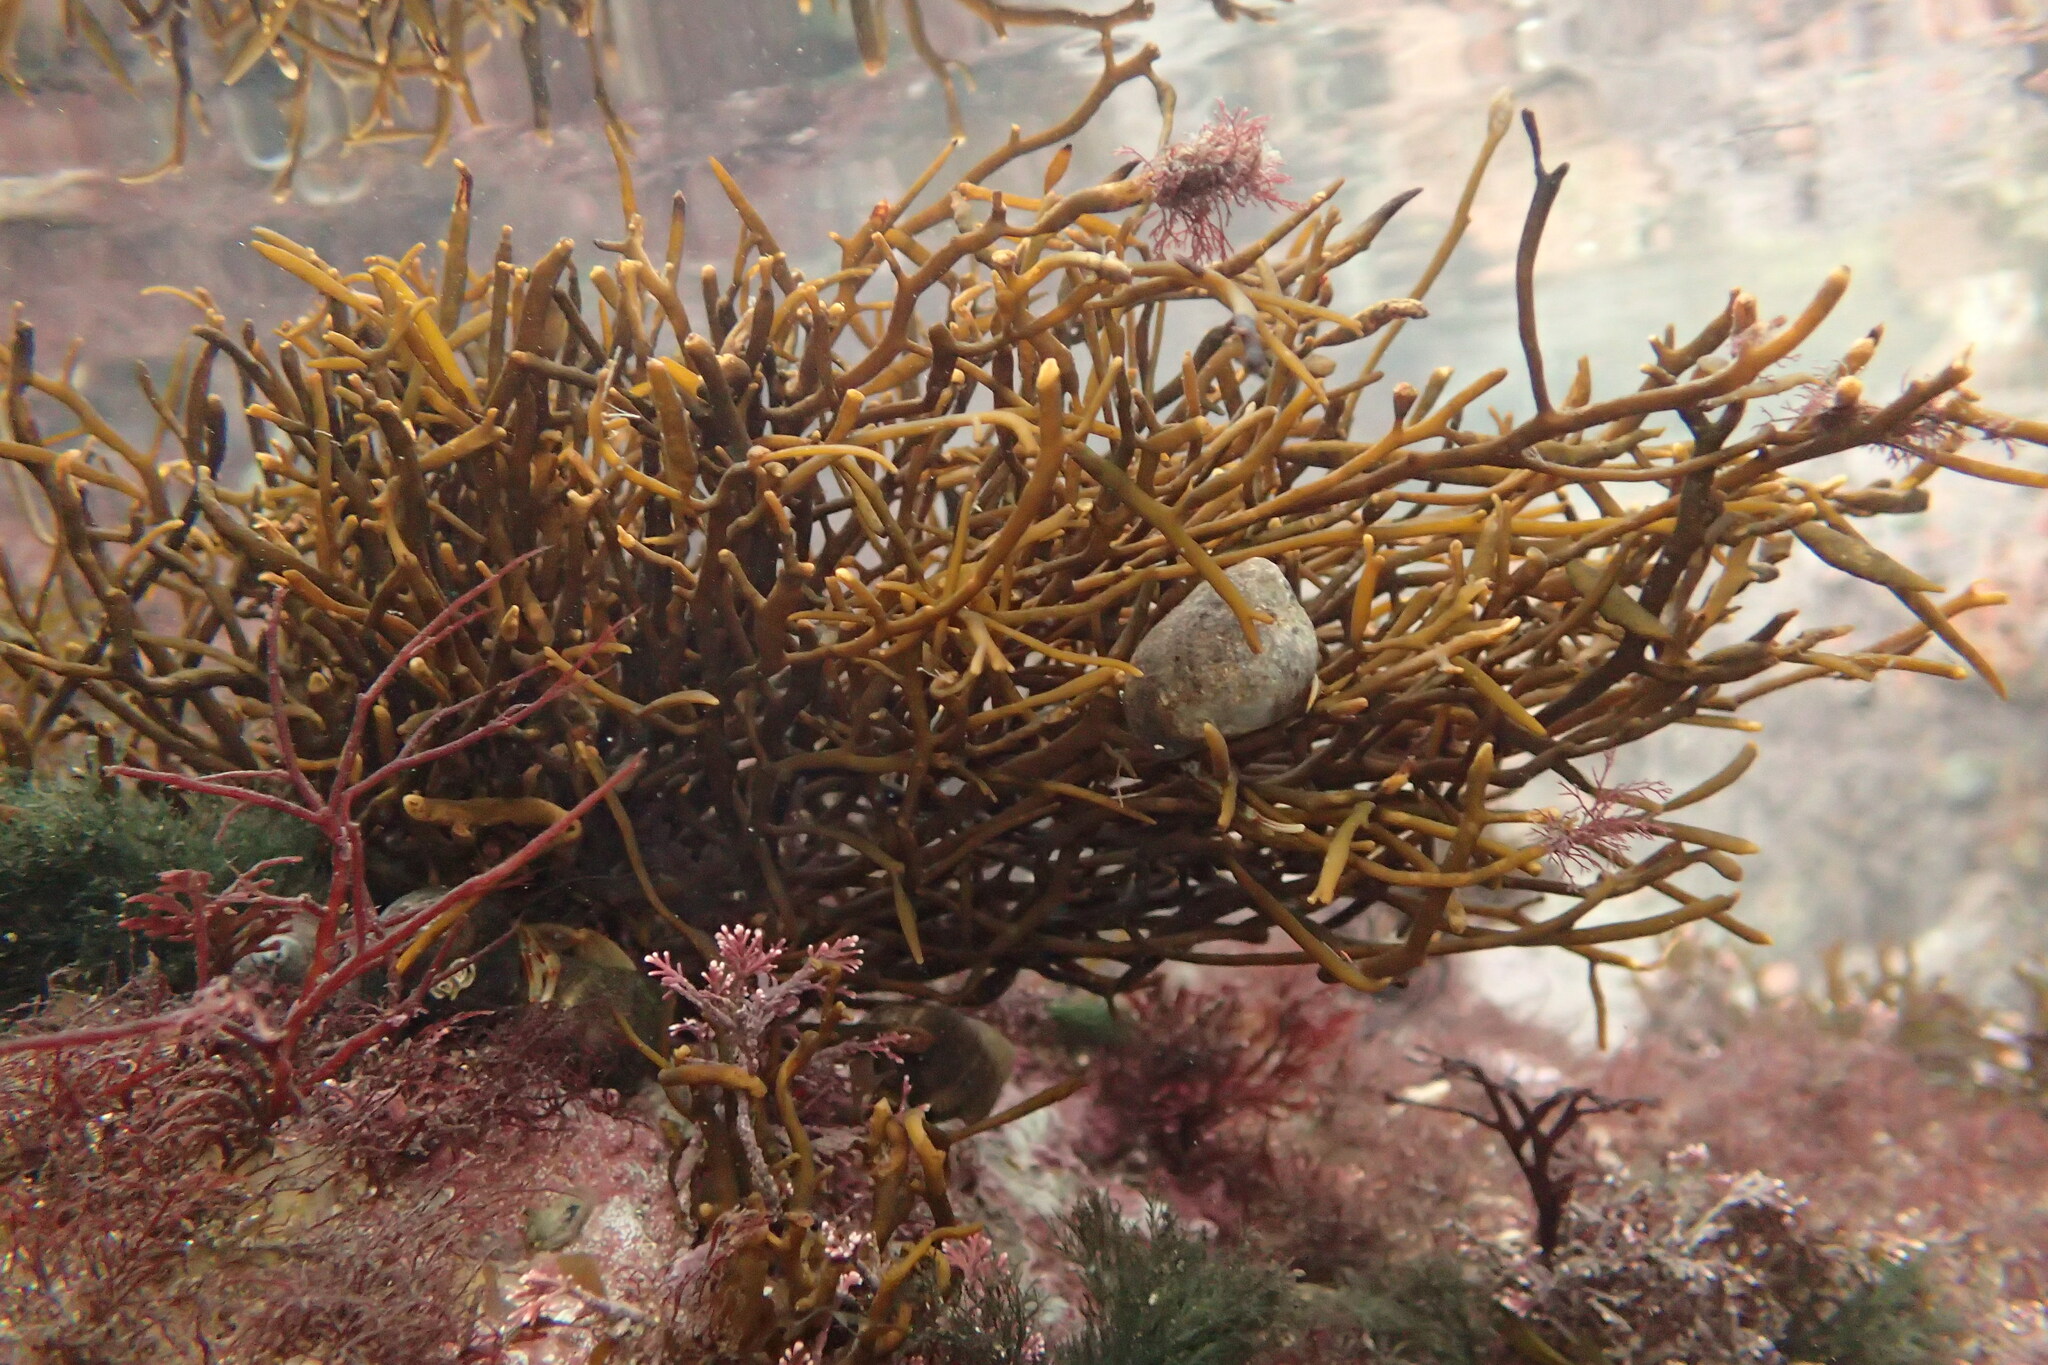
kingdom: Chromista
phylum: Ochrophyta
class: Phaeophyceae
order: Fucales
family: Sargassaceae
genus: Halidrys
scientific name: Halidrys siliquosa
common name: Sea oak
